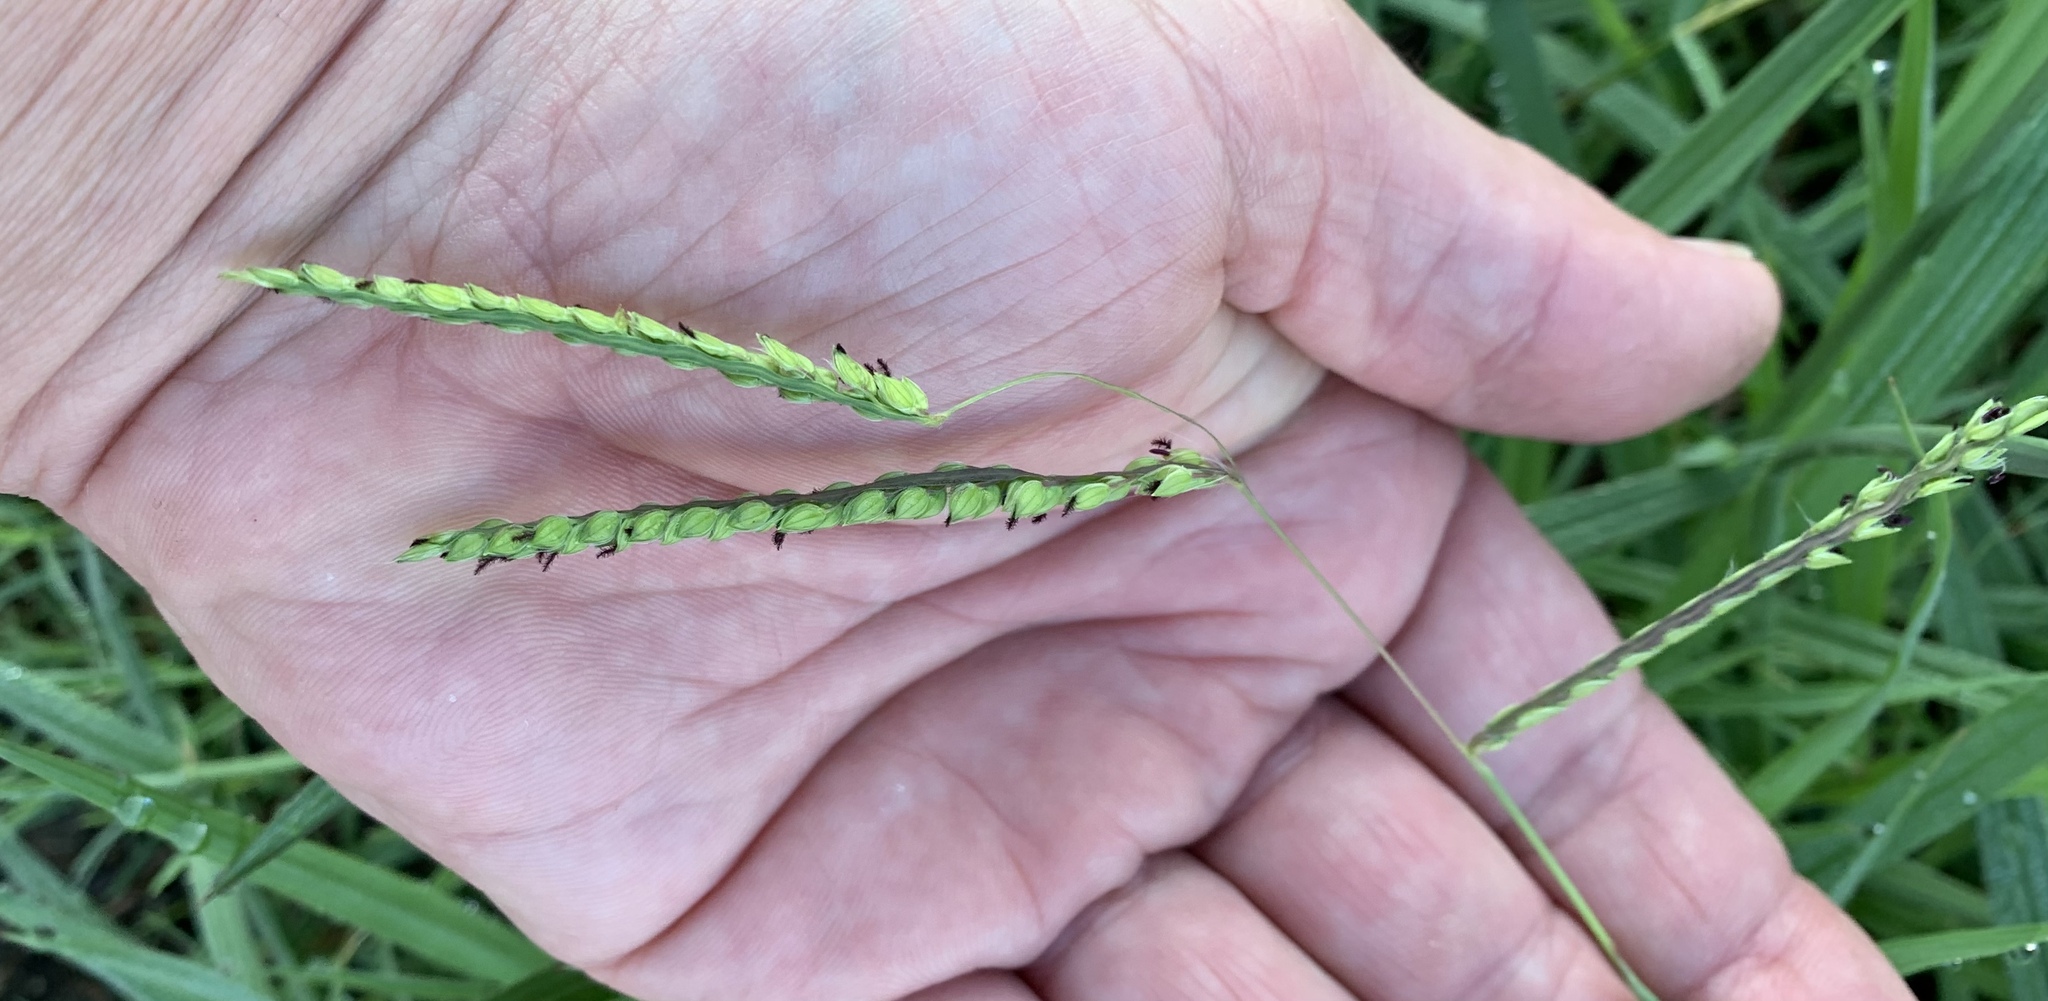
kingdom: Plantae
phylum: Tracheophyta
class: Liliopsida
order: Poales
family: Poaceae
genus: Paspalum
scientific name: Paspalum dilatatum
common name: Dallisgrass
